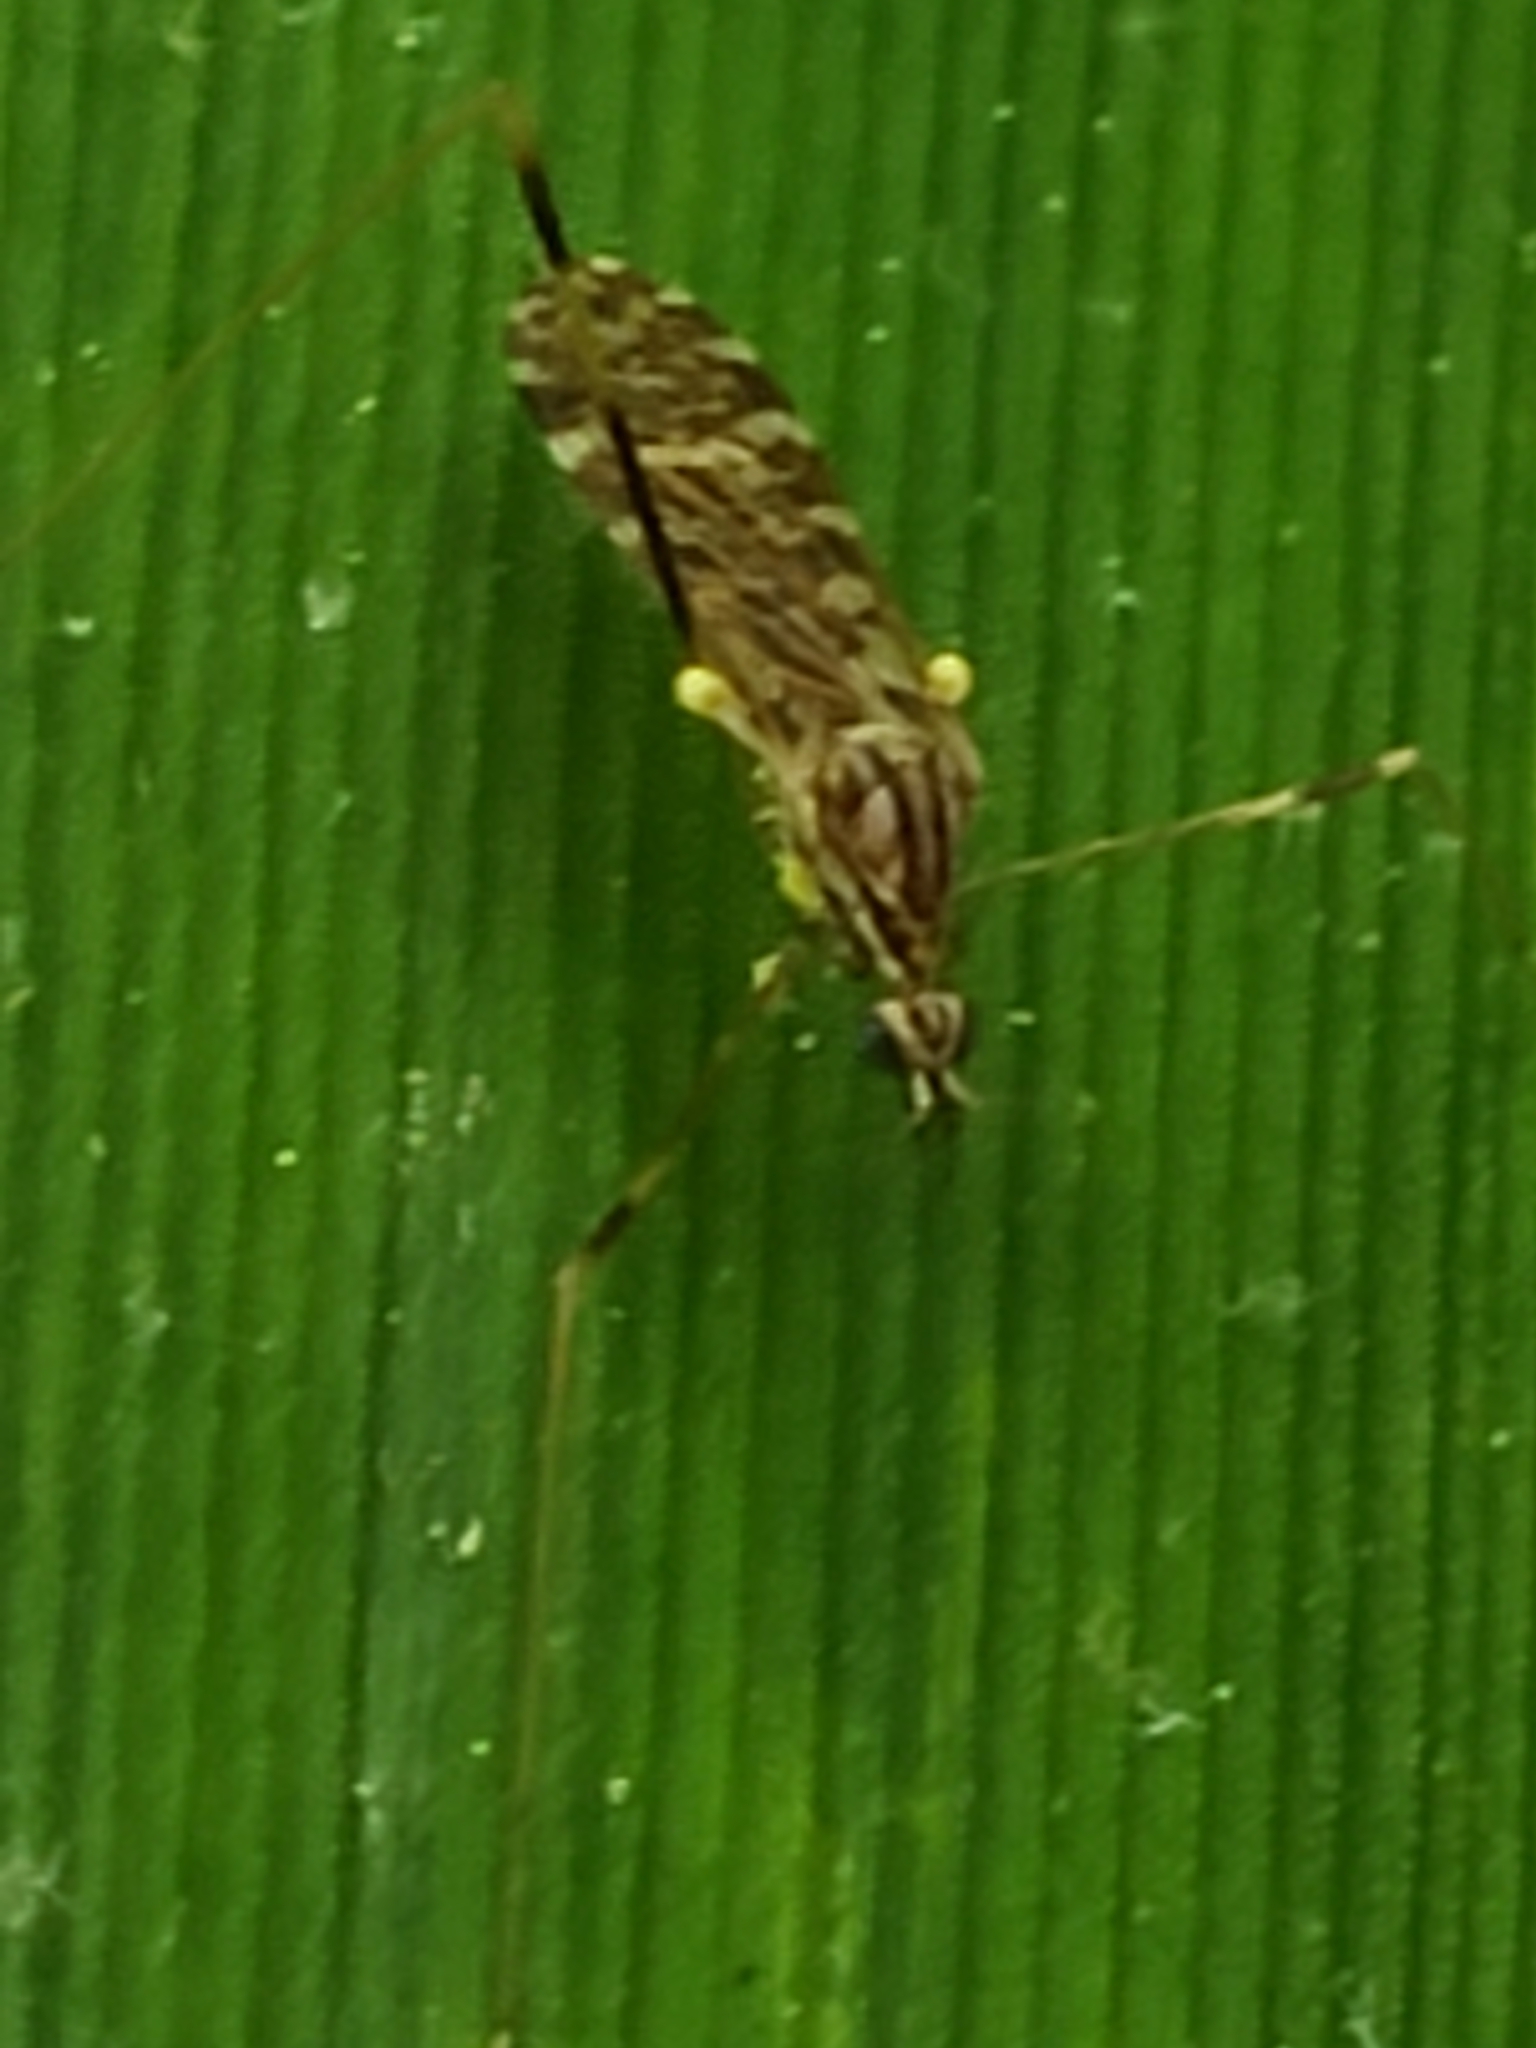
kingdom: Animalia
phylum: Arthropoda
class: Insecta
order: Diptera
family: Limoniidae
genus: Erioptera
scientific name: Erioptera caliptera
